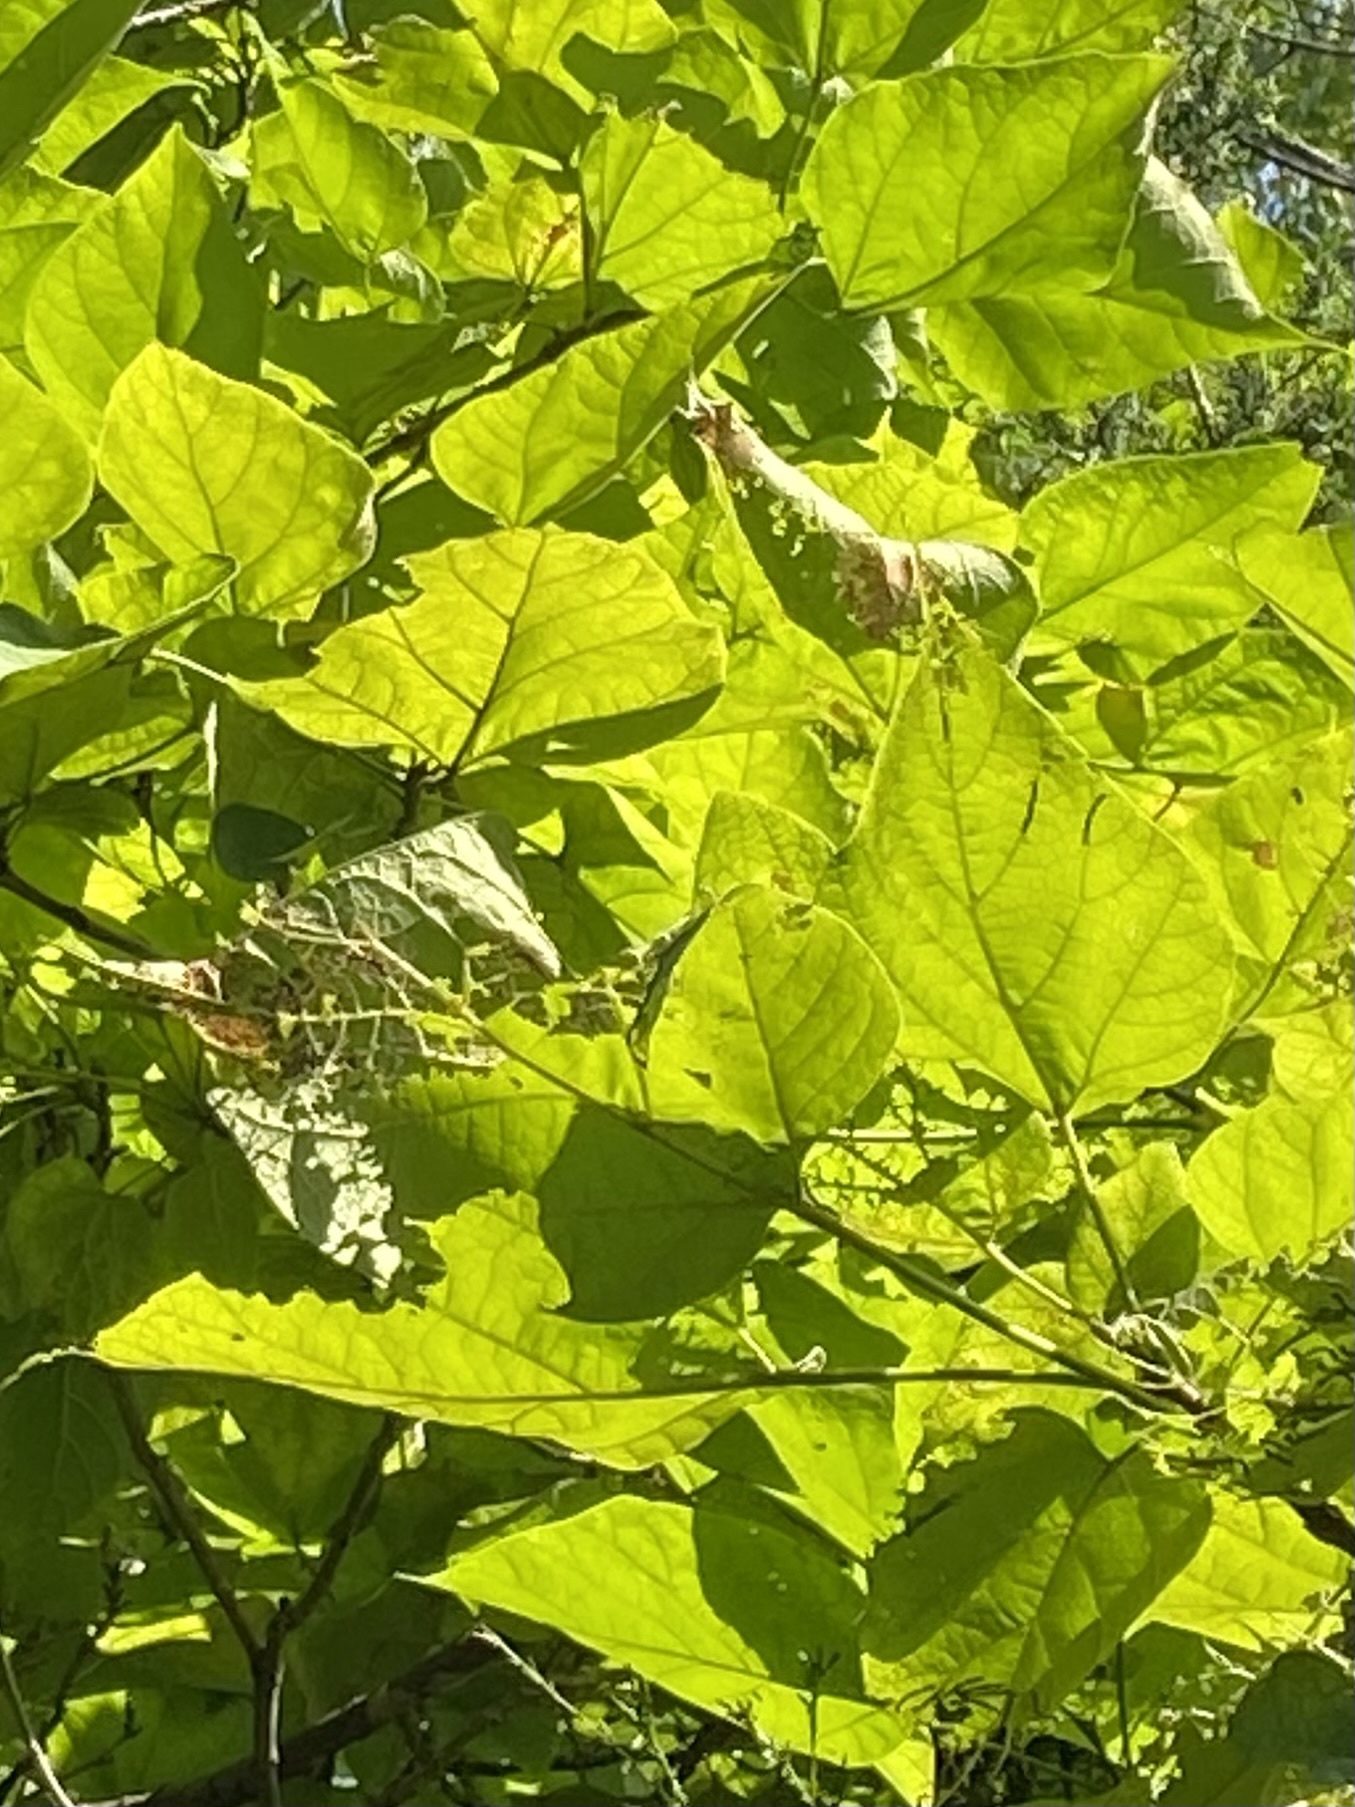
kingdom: Animalia
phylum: Arthropoda
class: Insecta
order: Lepidoptera
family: Sphingidae
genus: Ceratomia
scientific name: Ceratomia catalpae
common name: Catalpa hornworm
